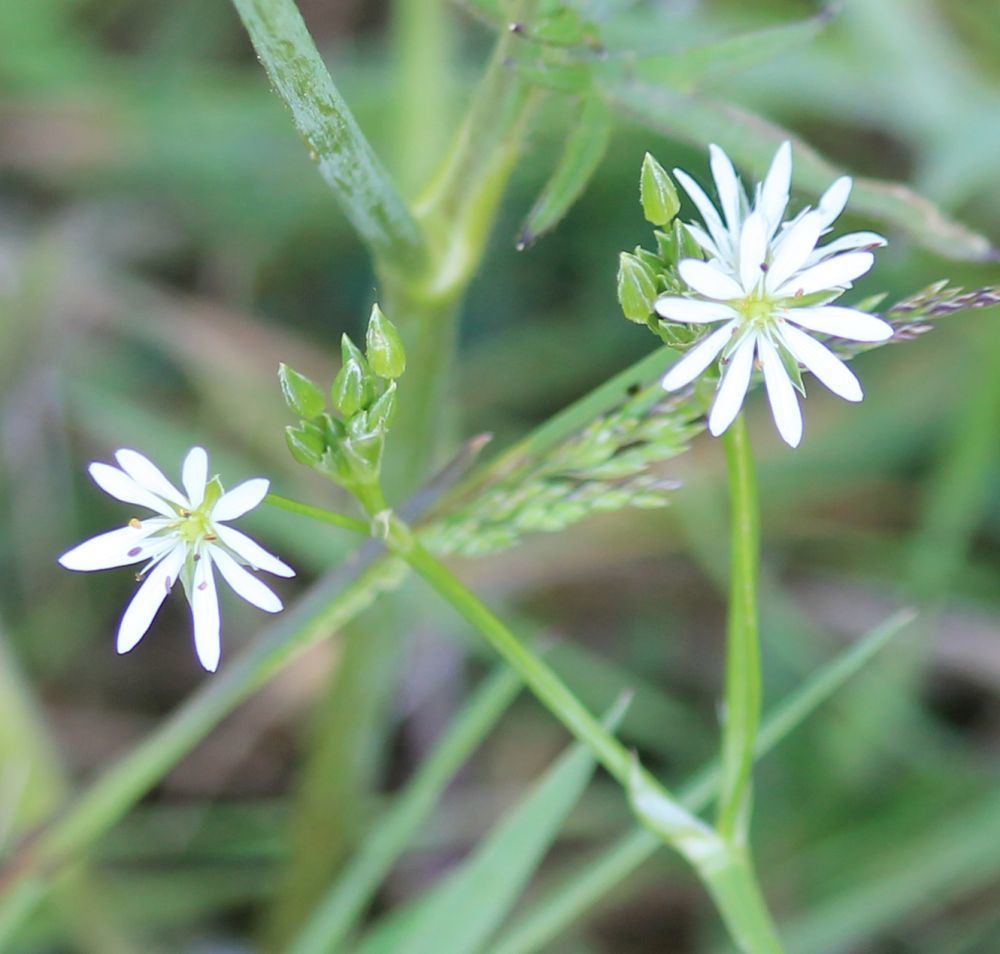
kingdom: Plantae
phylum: Tracheophyta
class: Magnoliopsida
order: Caryophyllales
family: Caryophyllaceae
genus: Stellaria
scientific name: Stellaria graminea
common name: Grass-like starwort
